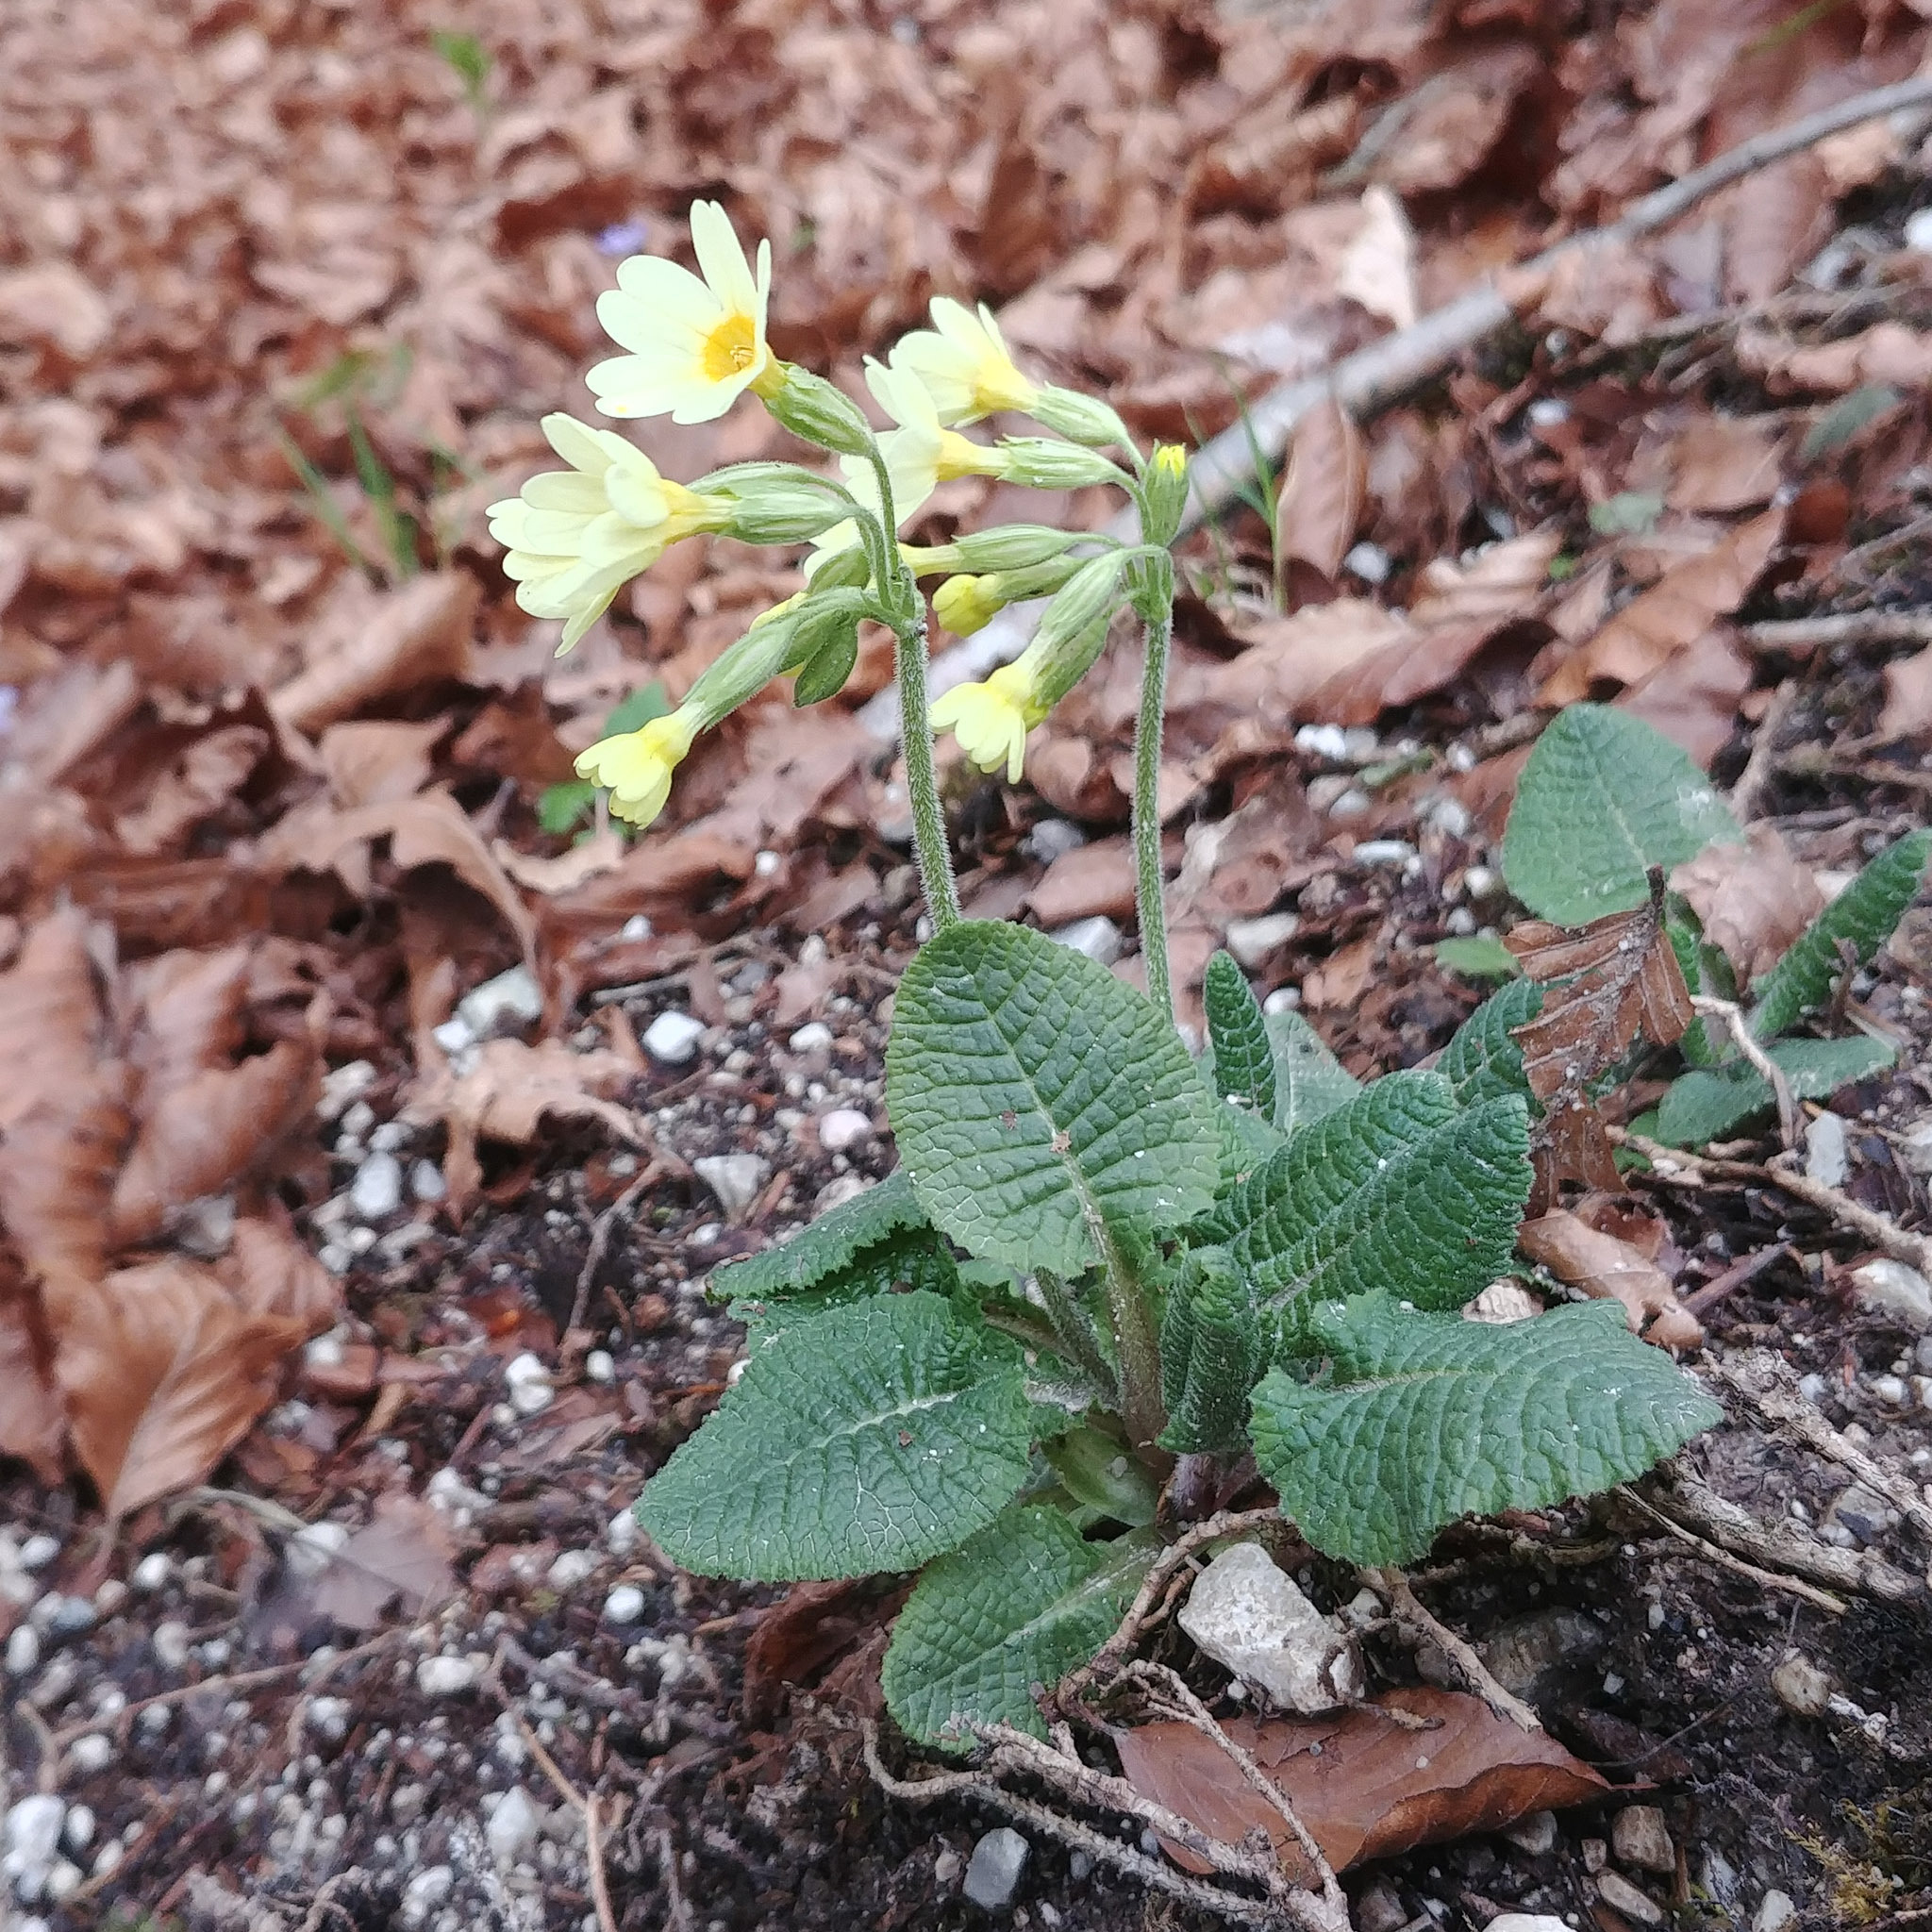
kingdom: Plantae
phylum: Tracheophyta
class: Magnoliopsida
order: Ericales
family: Primulaceae
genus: Primula
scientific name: Primula elatior
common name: Oxlip
